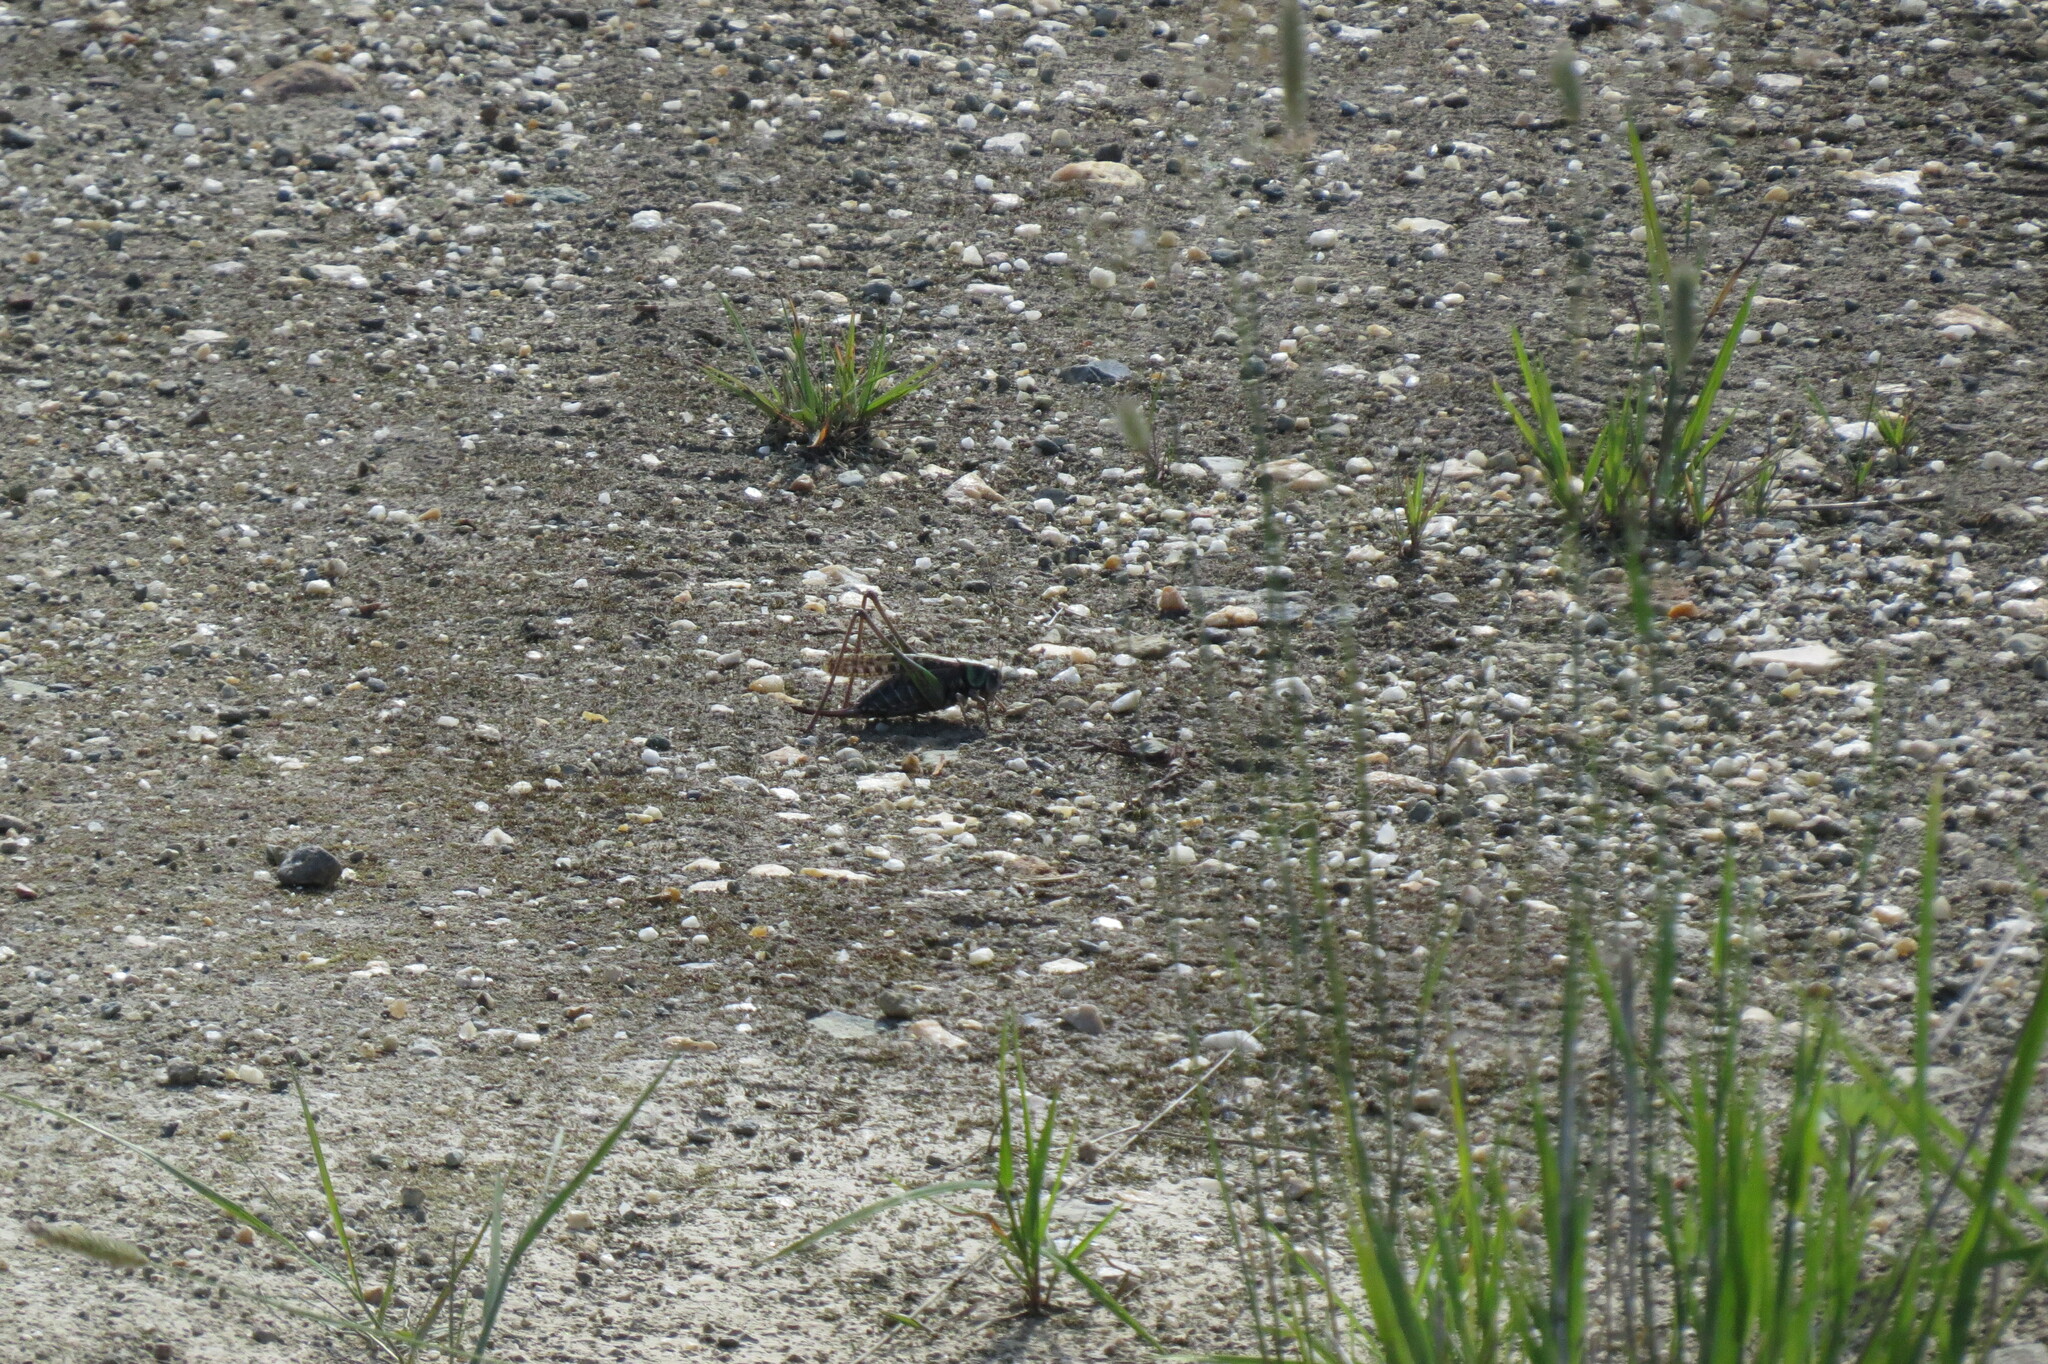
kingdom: Animalia
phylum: Arthropoda
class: Insecta
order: Orthoptera
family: Tettigoniidae
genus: Decticus
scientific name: Decticus verrucivorus
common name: Wart-biter
